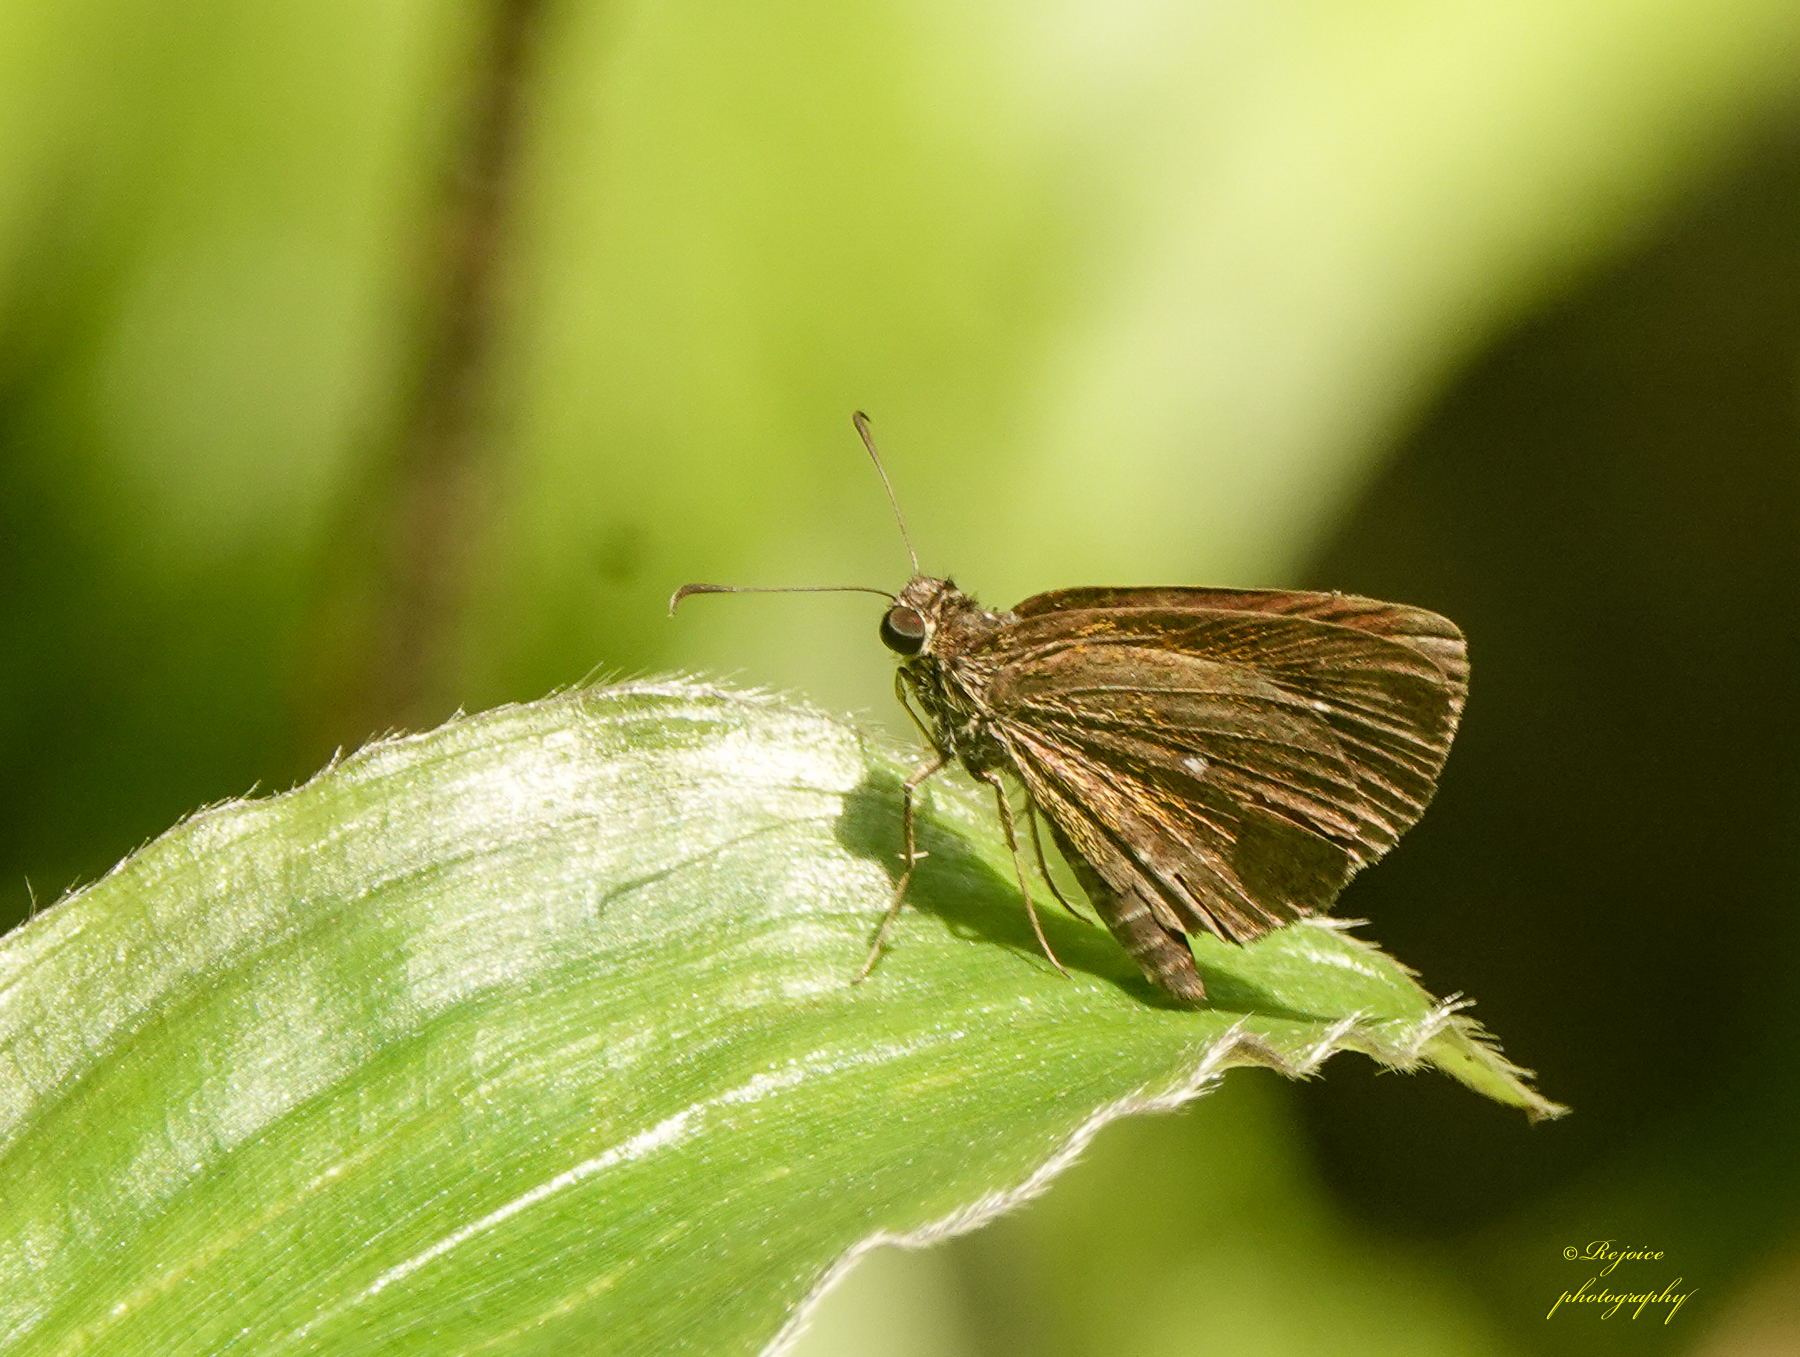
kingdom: Animalia
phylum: Arthropoda
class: Insecta
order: Lepidoptera
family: Hesperiidae
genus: Iambrix
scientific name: Iambrix salsala
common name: Chestnut bob
